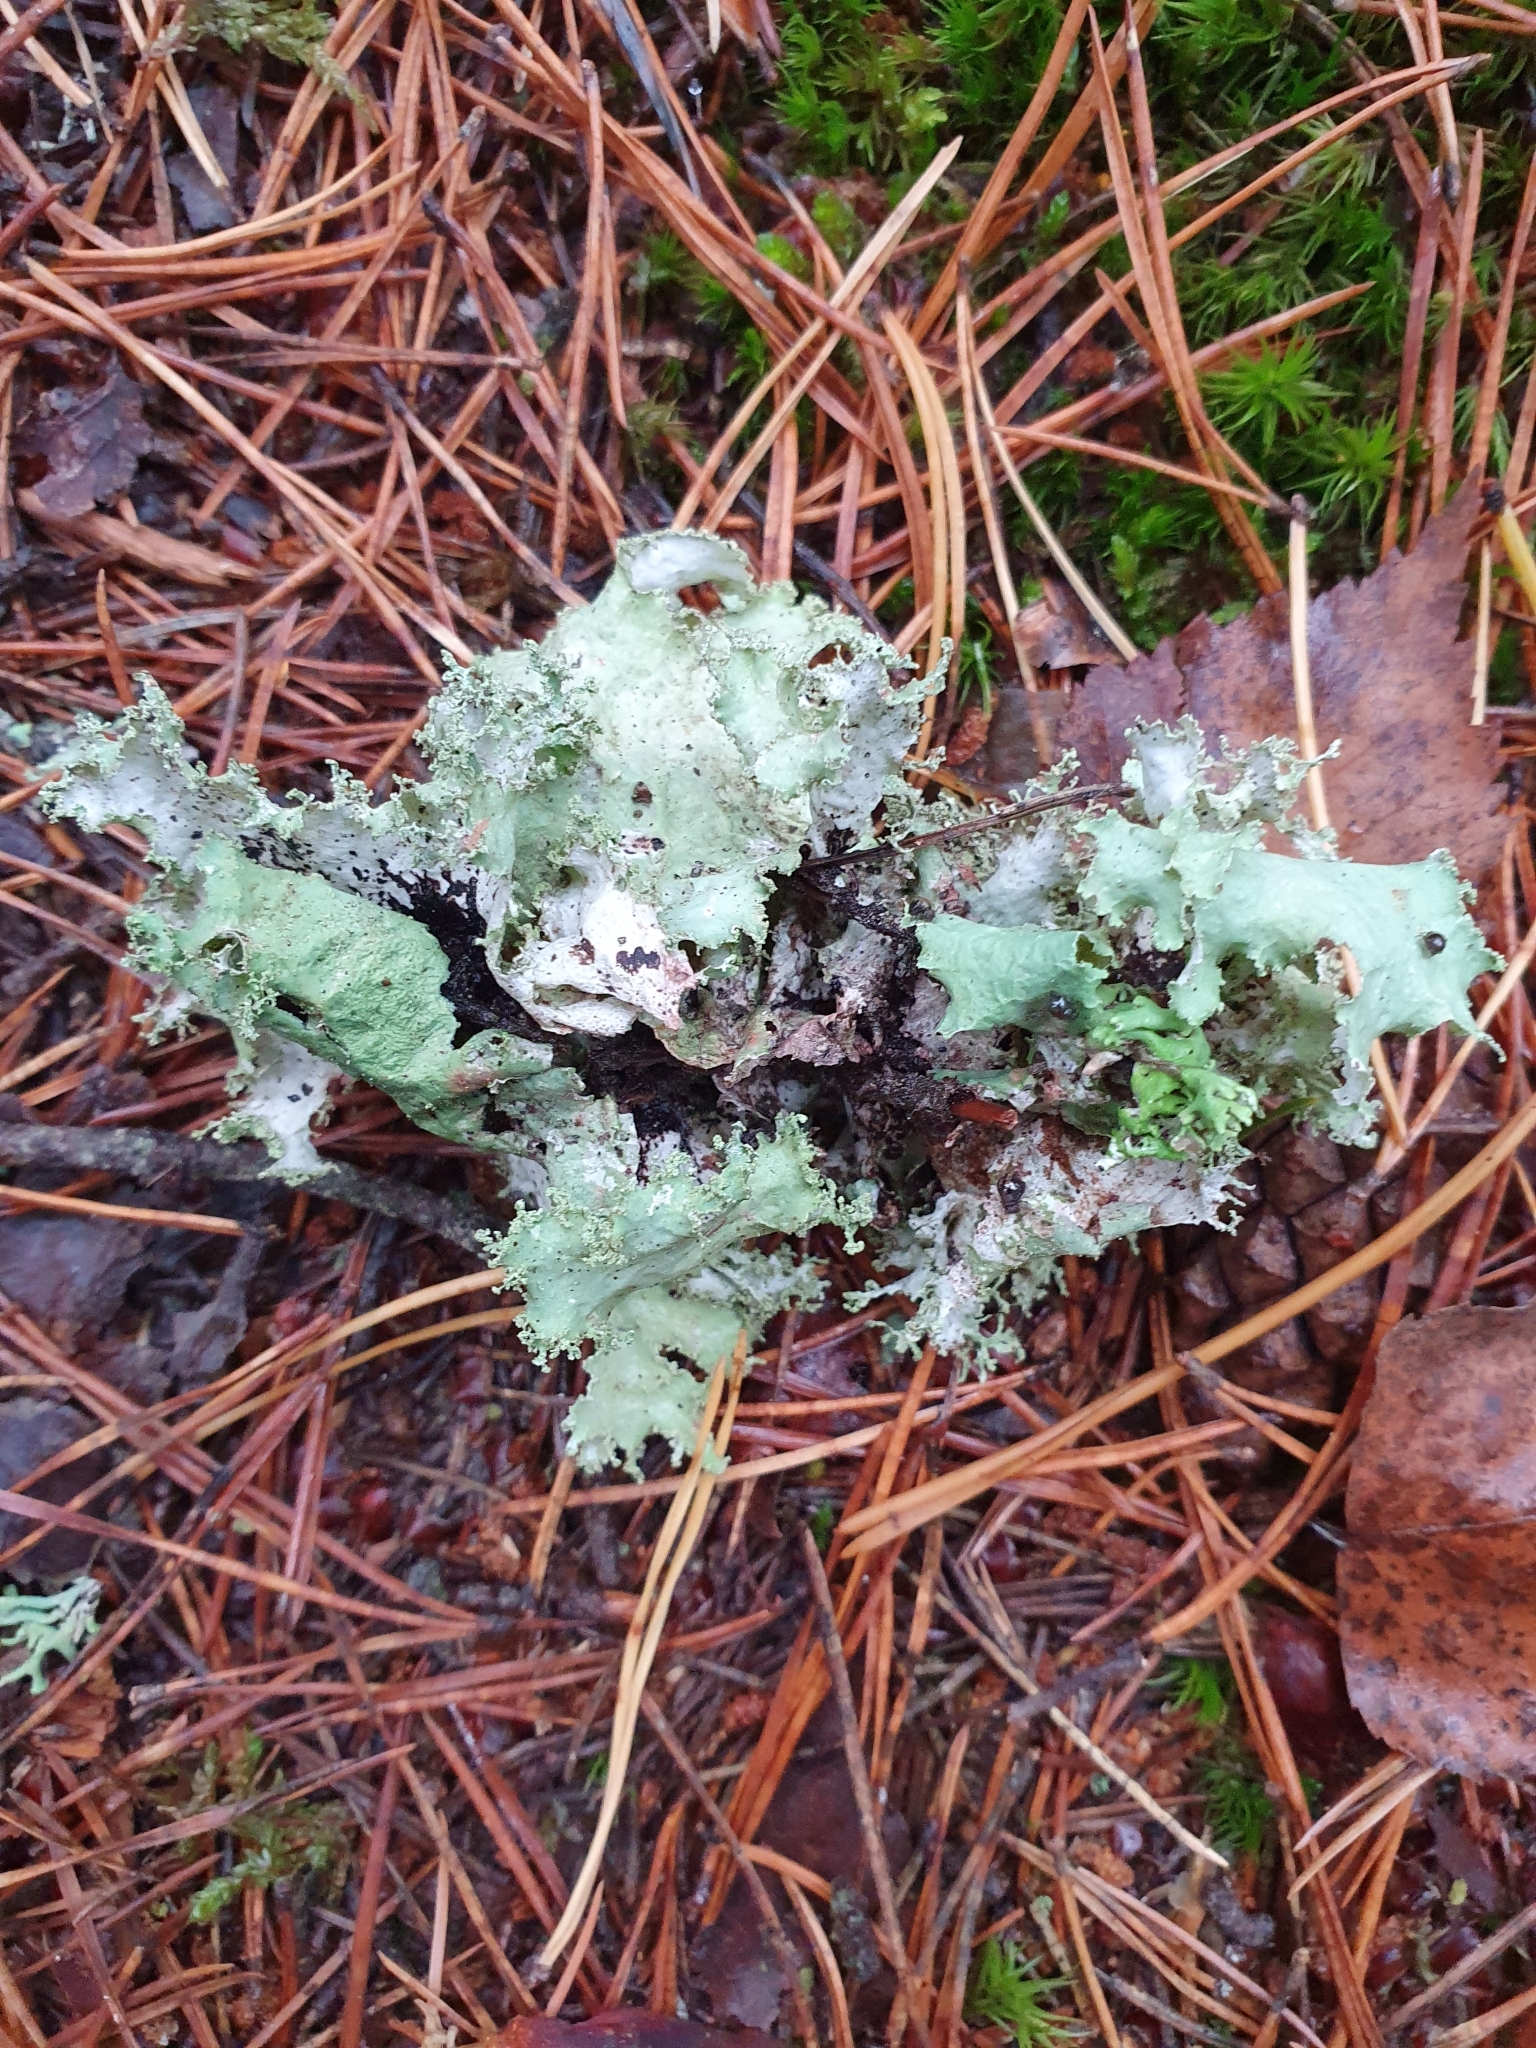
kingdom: Fungi
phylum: Ascomycota
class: Lecanoromycetes
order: Lecanorales
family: Parmeliaceae
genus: Platismatia
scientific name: Platismatia glauca
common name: Varied rag lichen
